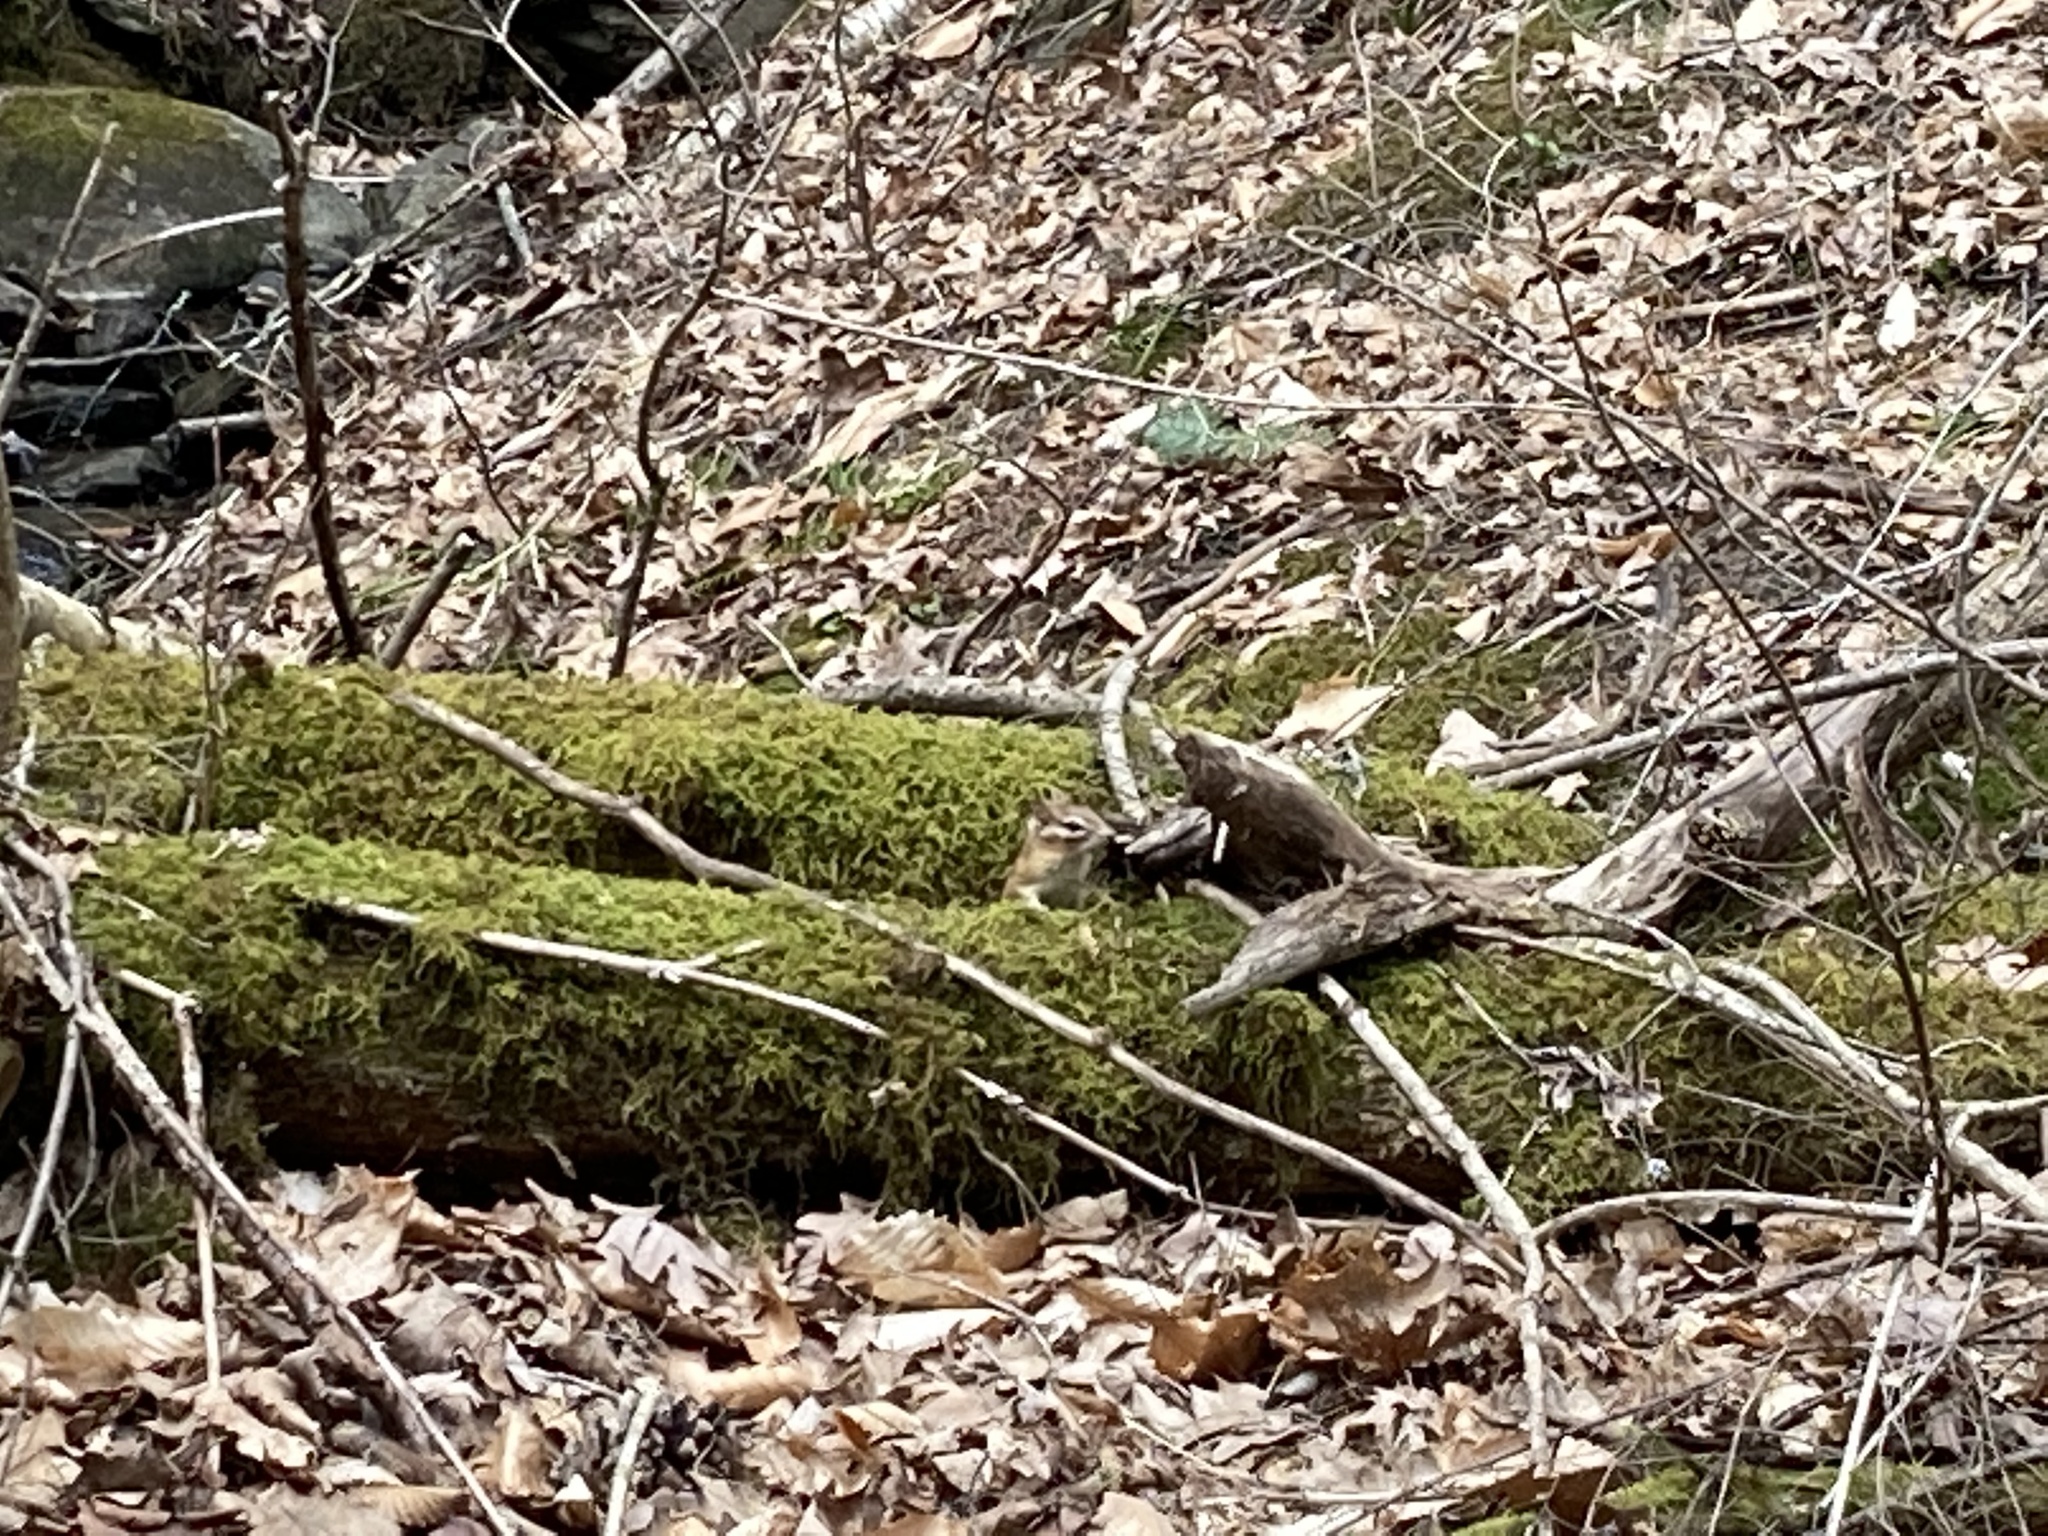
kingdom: Animalia
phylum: Chordata
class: Mammalia
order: Rodentia
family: Sciuridae
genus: Tamias
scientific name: Tamias striatus
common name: Eastern chipmunk
